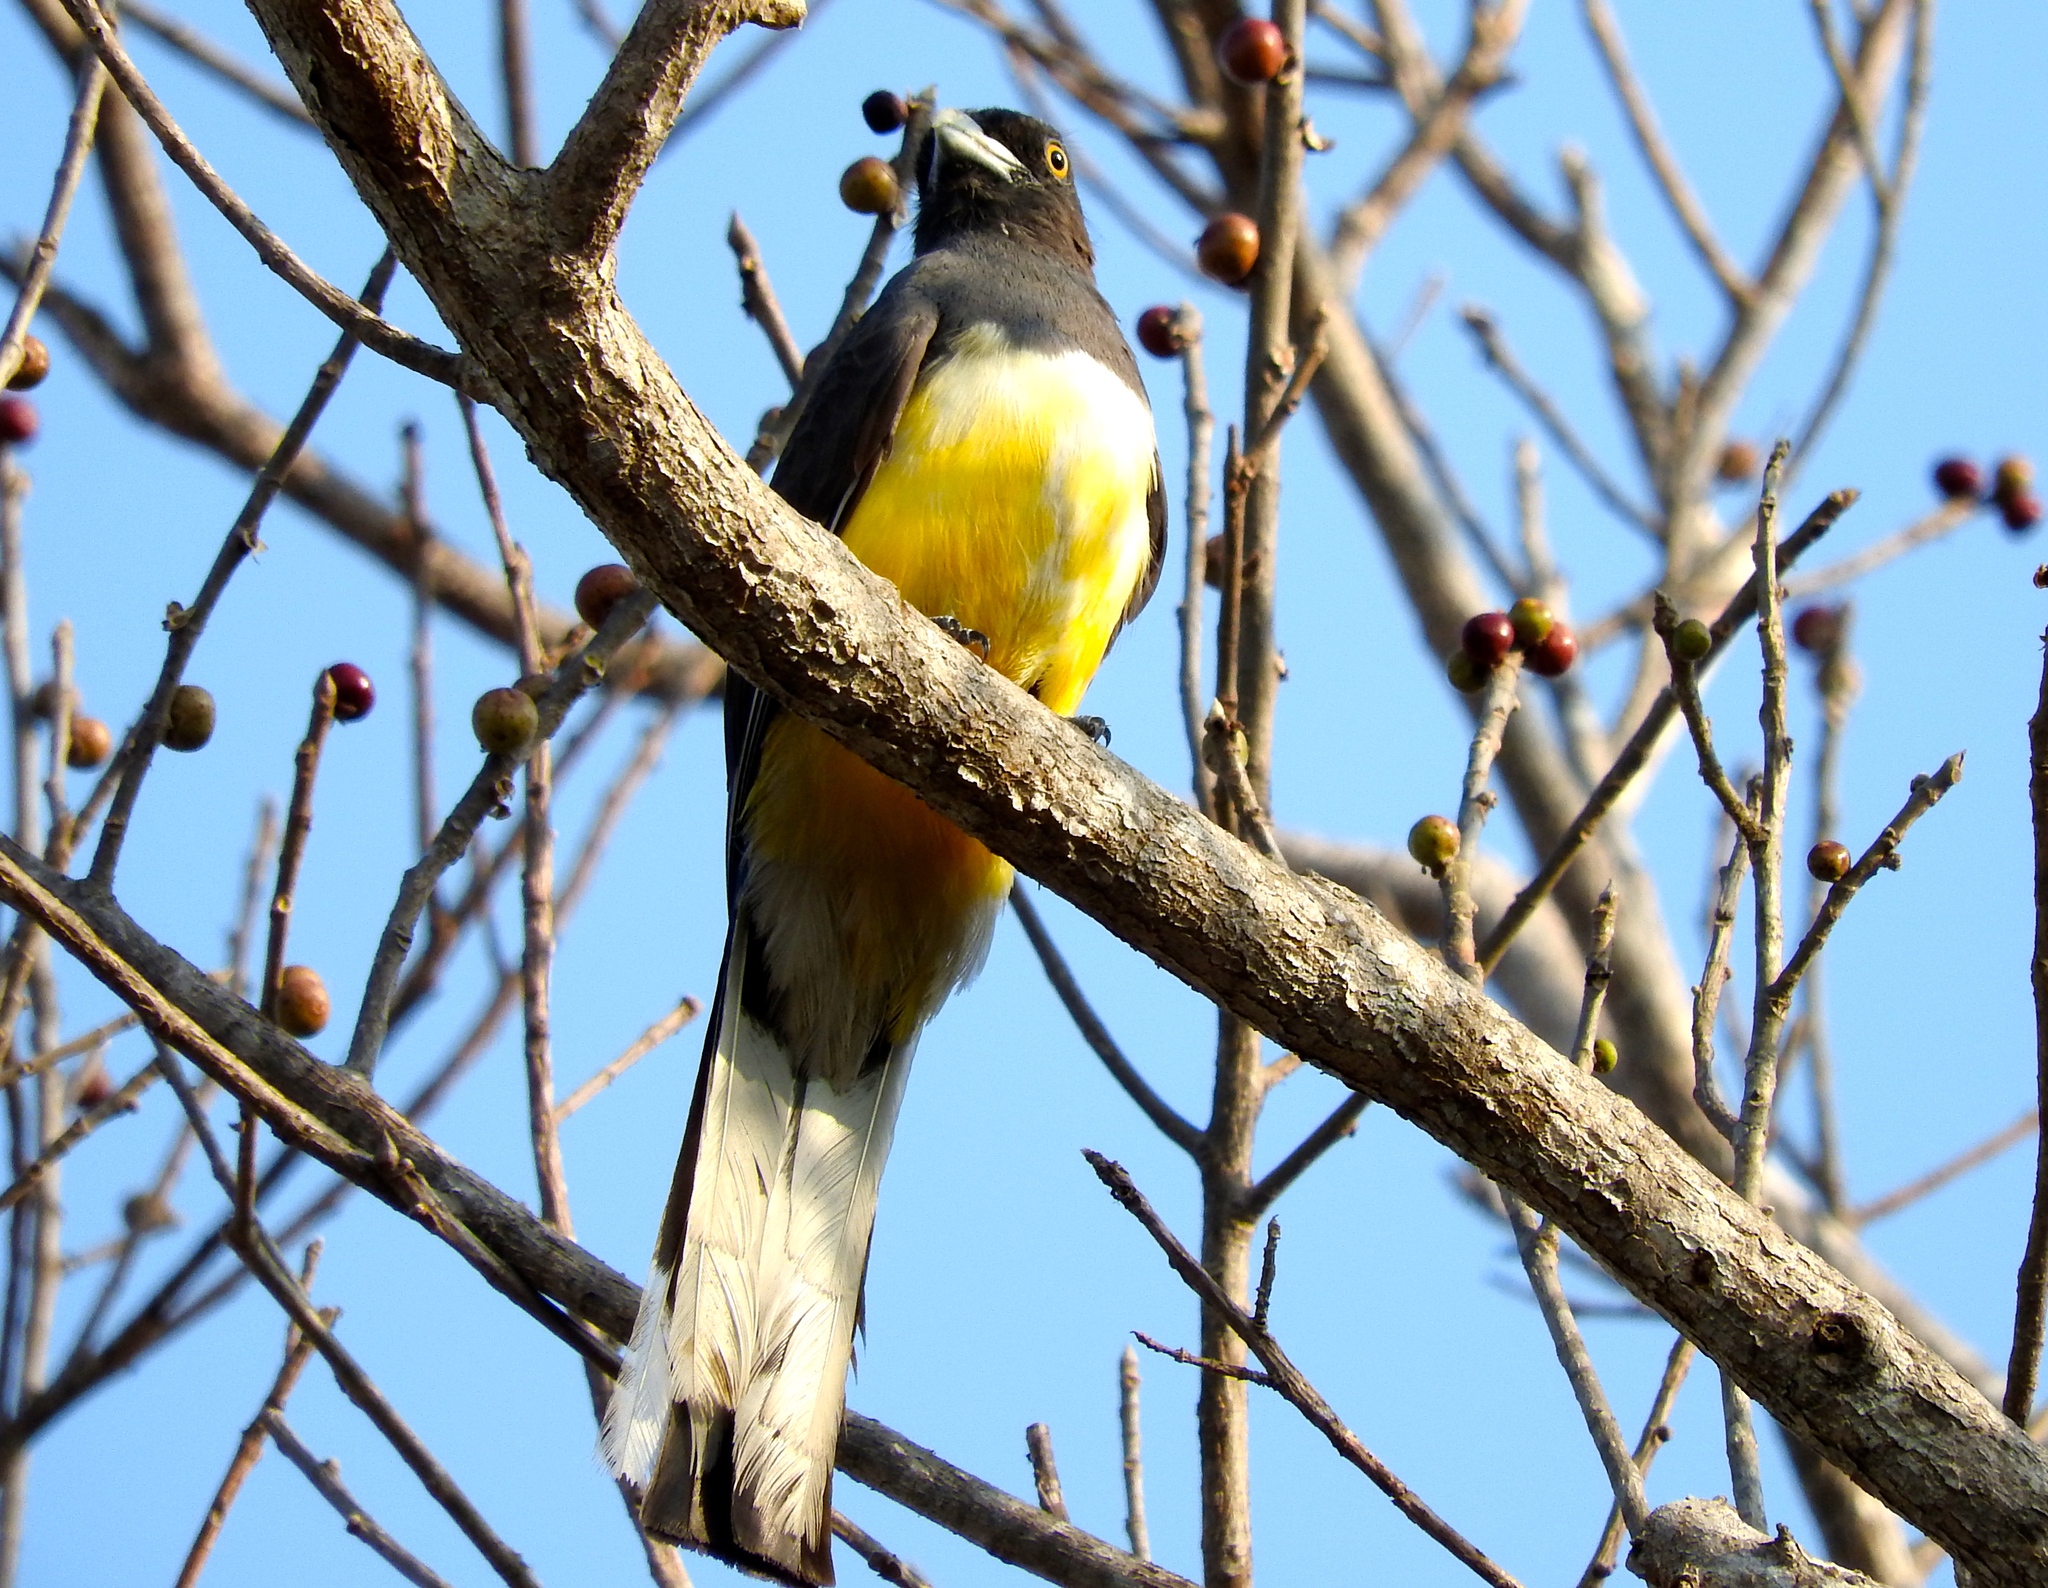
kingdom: Animalia
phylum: Chordata
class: Aves
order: Trogoniformes
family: Trogonidae
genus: Trogon
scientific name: Trogon citreolus
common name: Citreoline trogon
